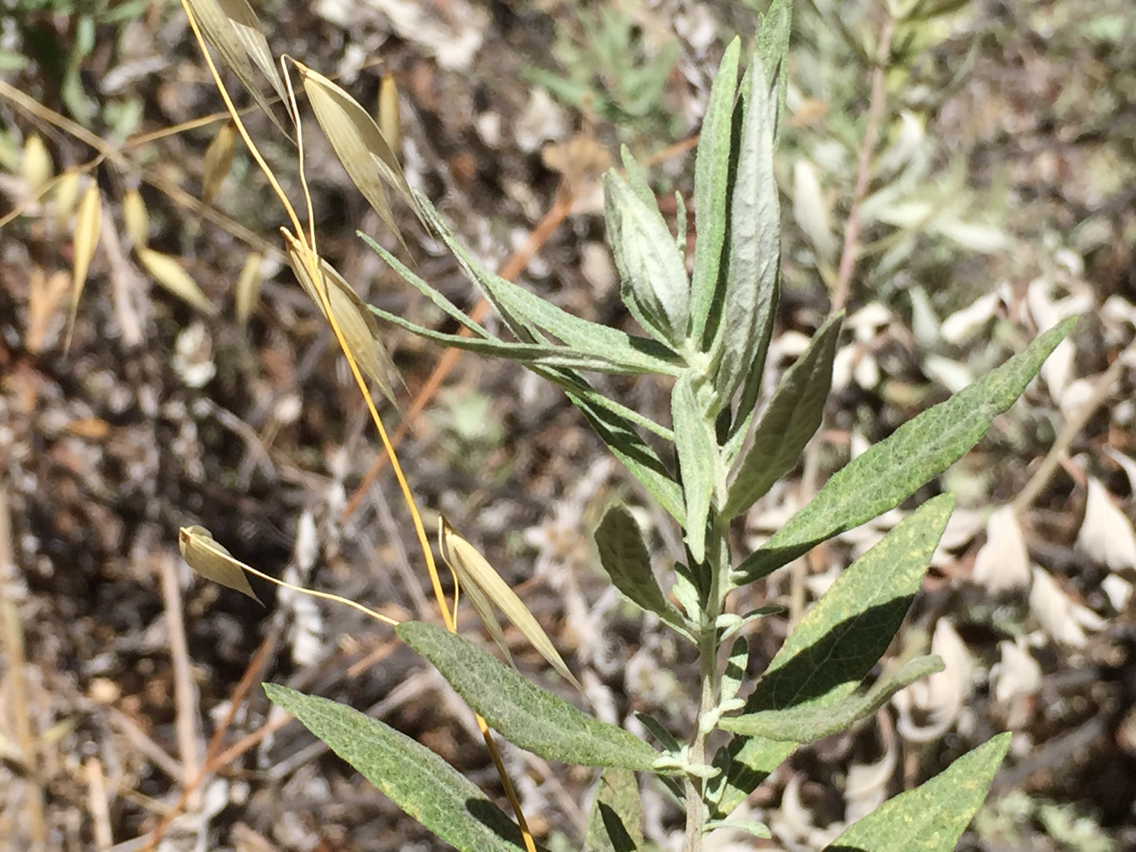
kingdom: Plantae
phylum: Tracheophyta
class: Magnoliopsida
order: Asterales
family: Asteraceae
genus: Artemisia
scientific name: Artemisia douglasiana
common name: Northwest mugwort
